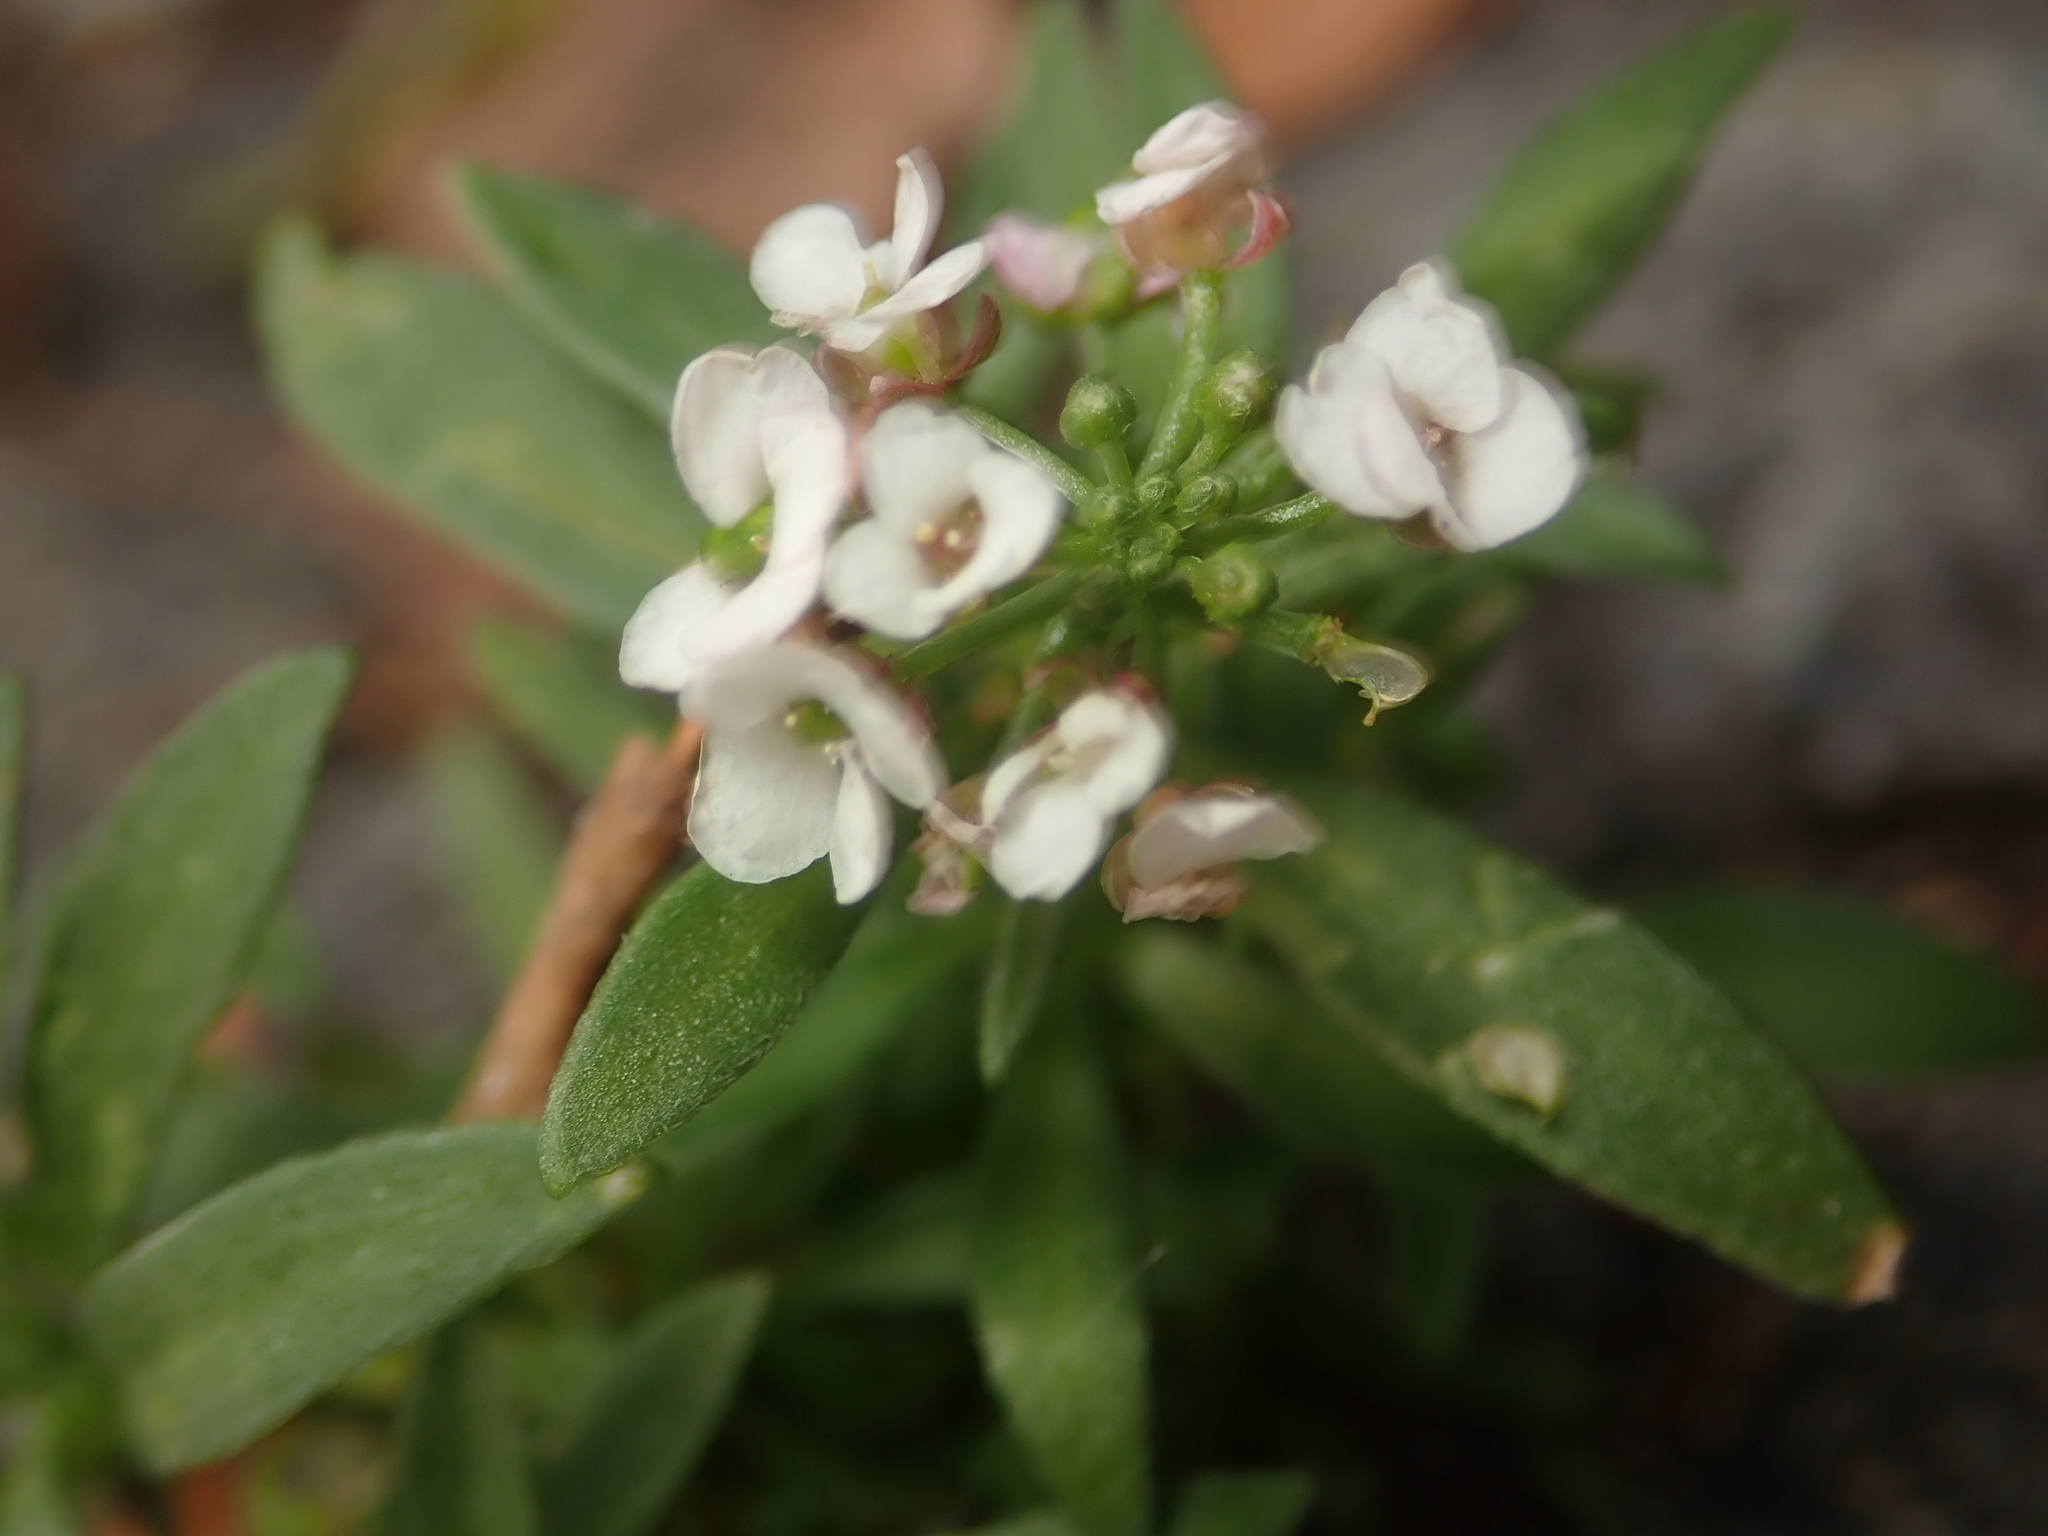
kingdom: Plantae
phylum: Tracheophyta
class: Magnoliopsida
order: Brassicales
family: Brassicaceae
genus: Lobularia
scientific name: Lobularia maritima
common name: Sweet alison
